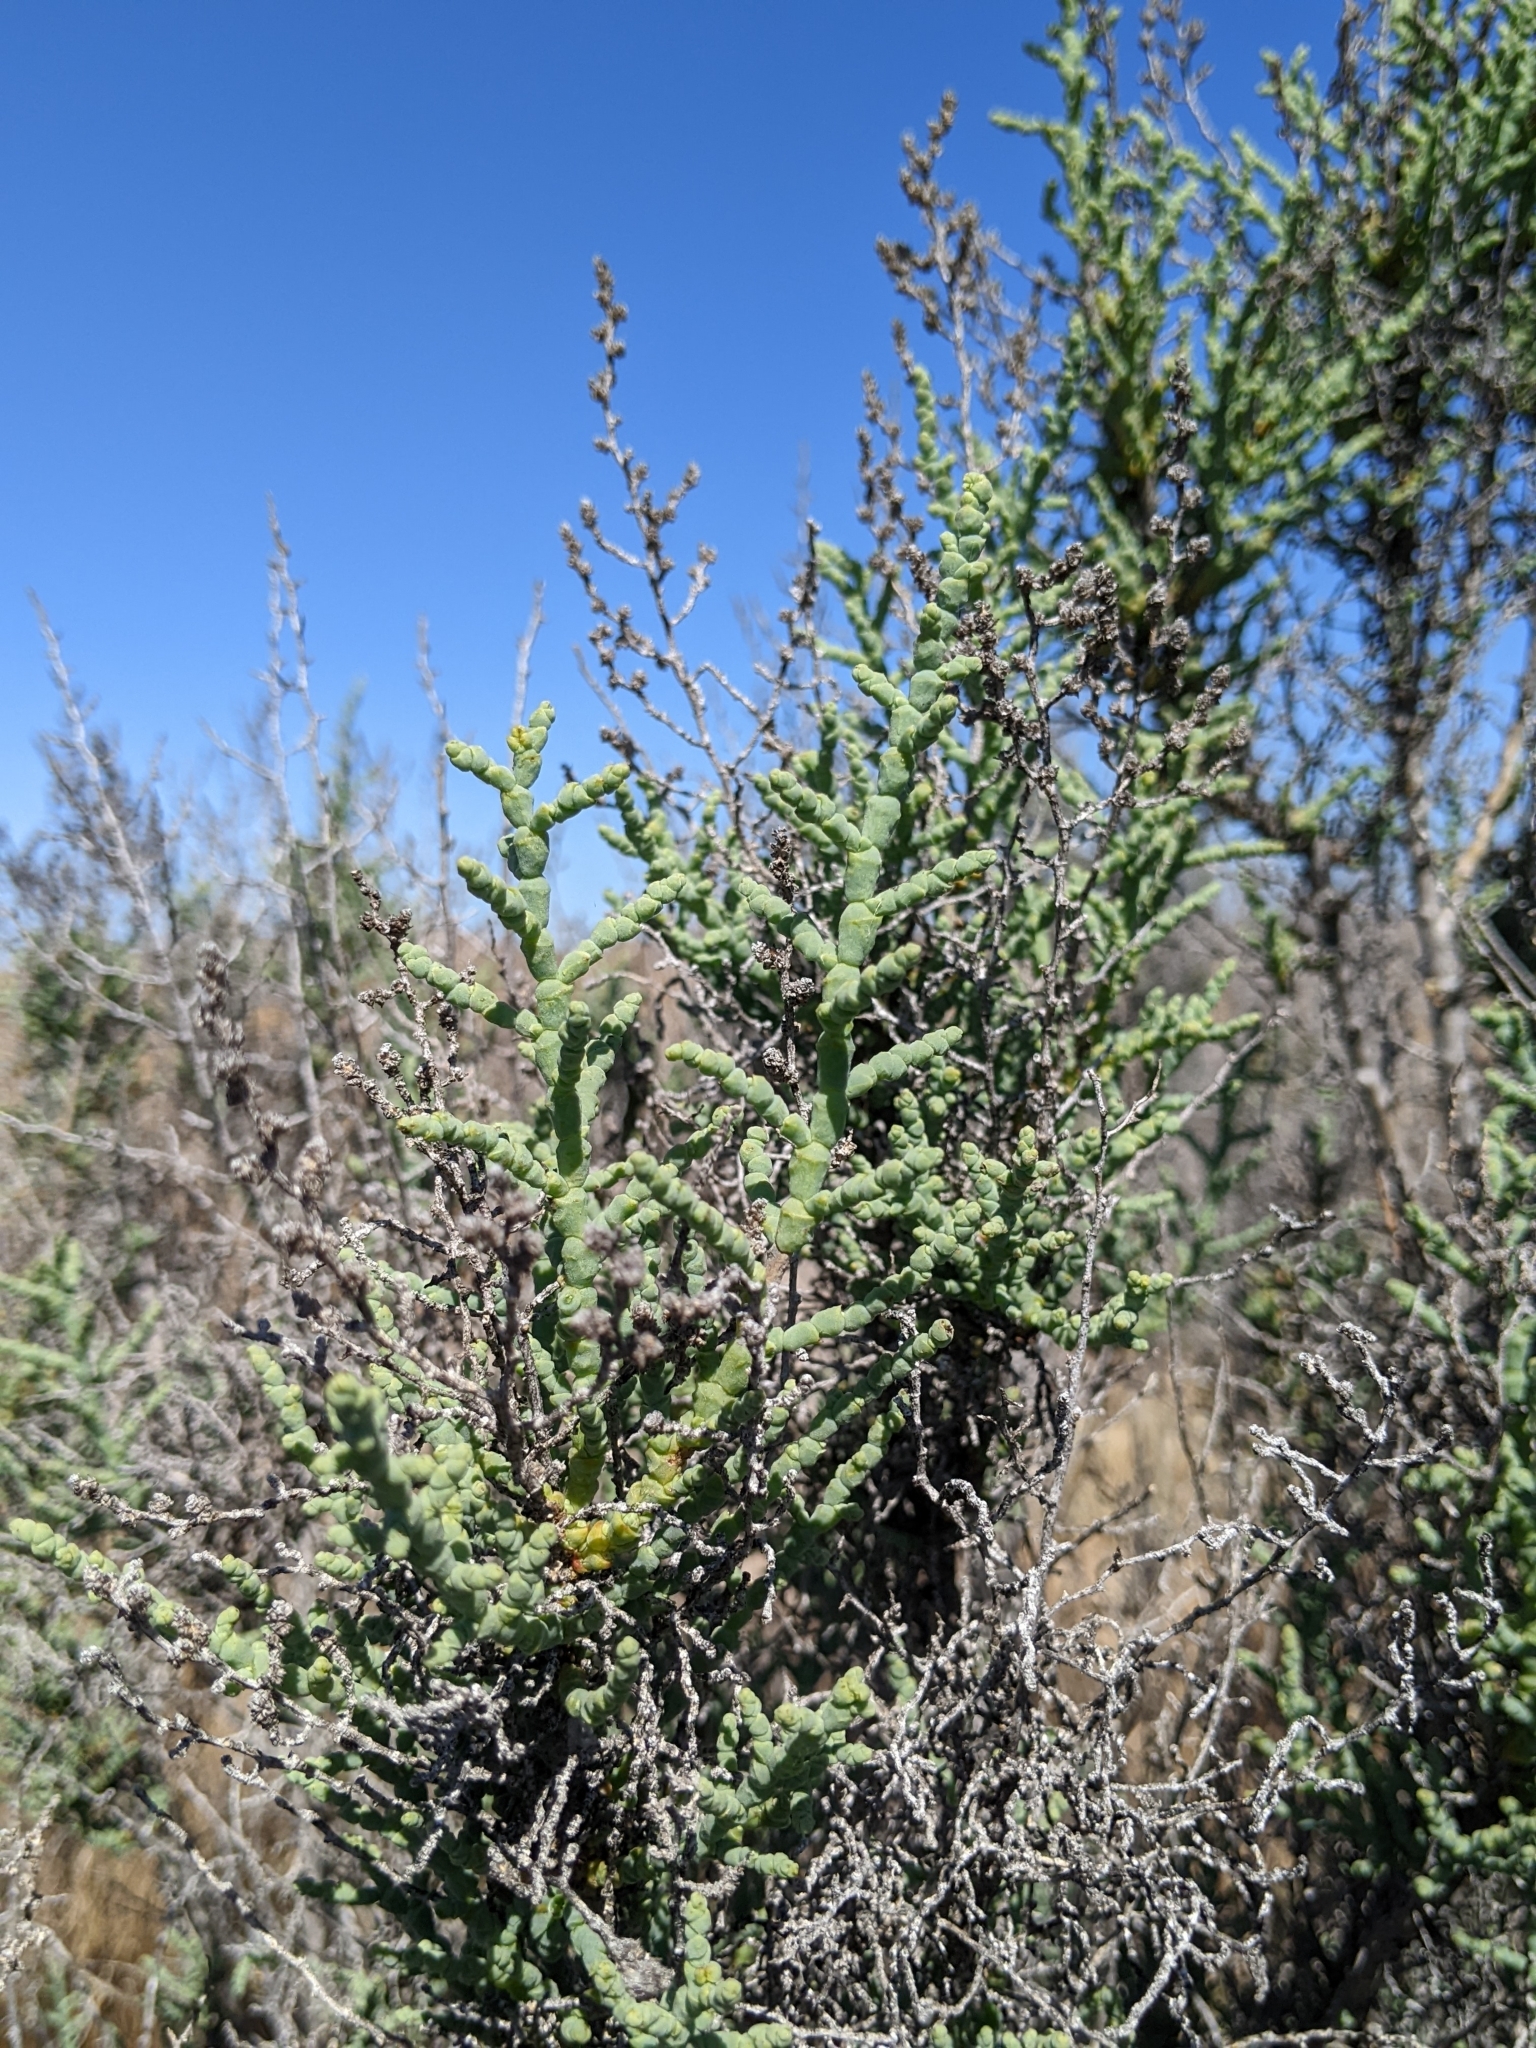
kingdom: Plantae
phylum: Tracheophyta
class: Magnoliopsida
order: Caryophyllales
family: Amaranthaceae
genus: Allenrolfea
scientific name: Allenrolfea occidentalis
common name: Iodine-bush
